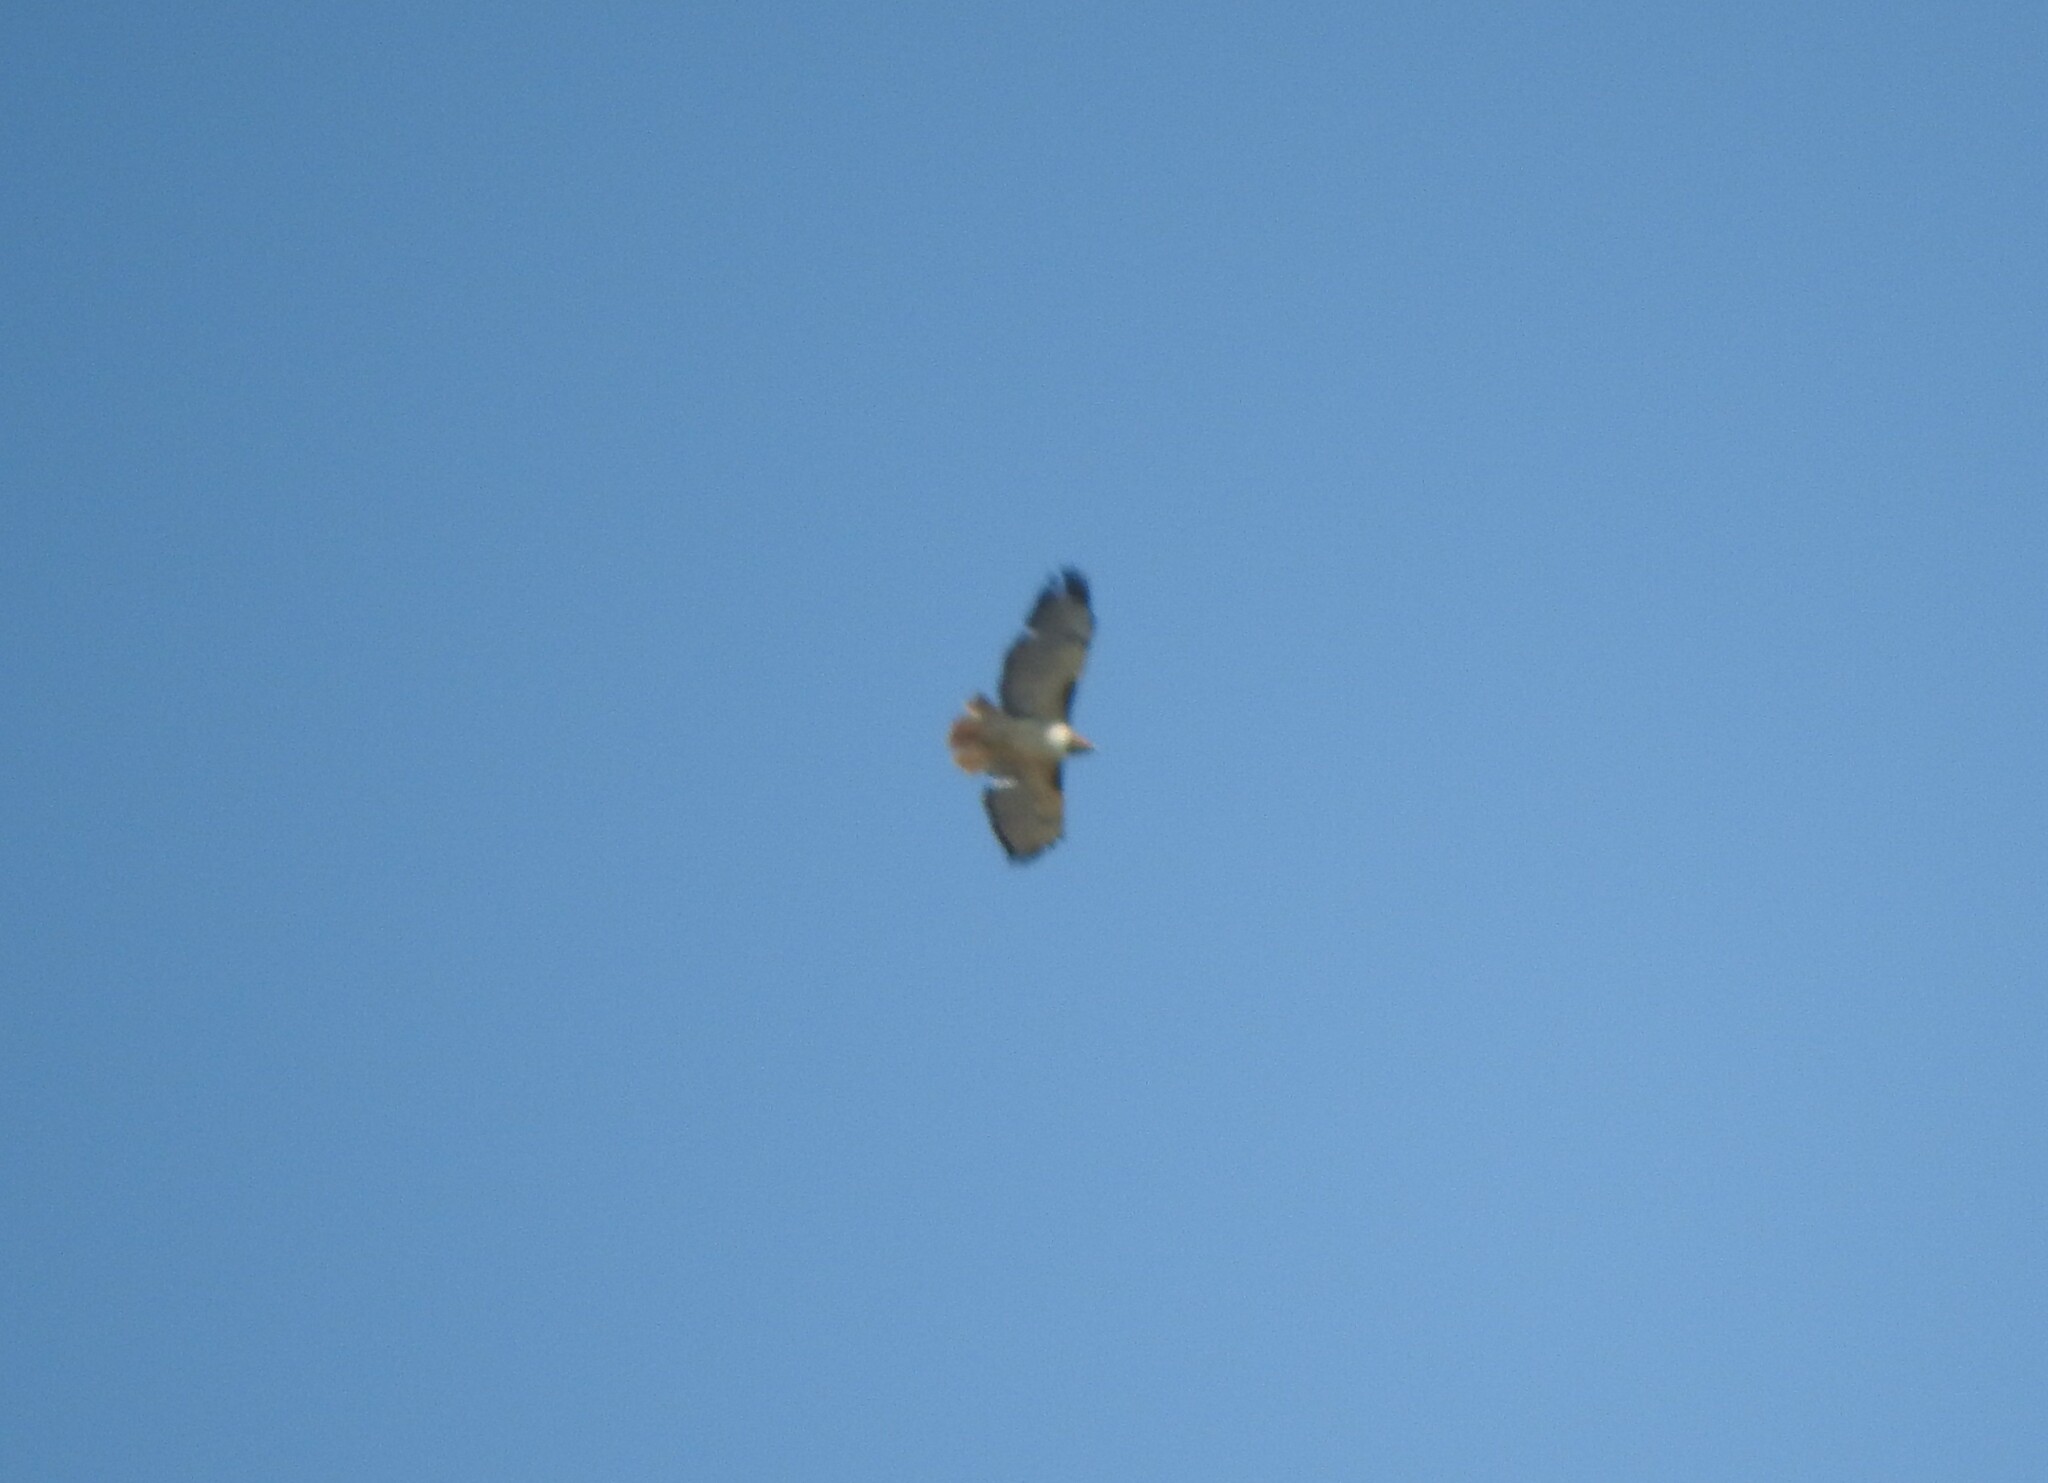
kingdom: Animalia
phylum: Chordata
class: Aves
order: Accipitriformes
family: Accipitridae
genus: Buteo
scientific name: Buteo jamaicensis
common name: Red-tailed hawk
